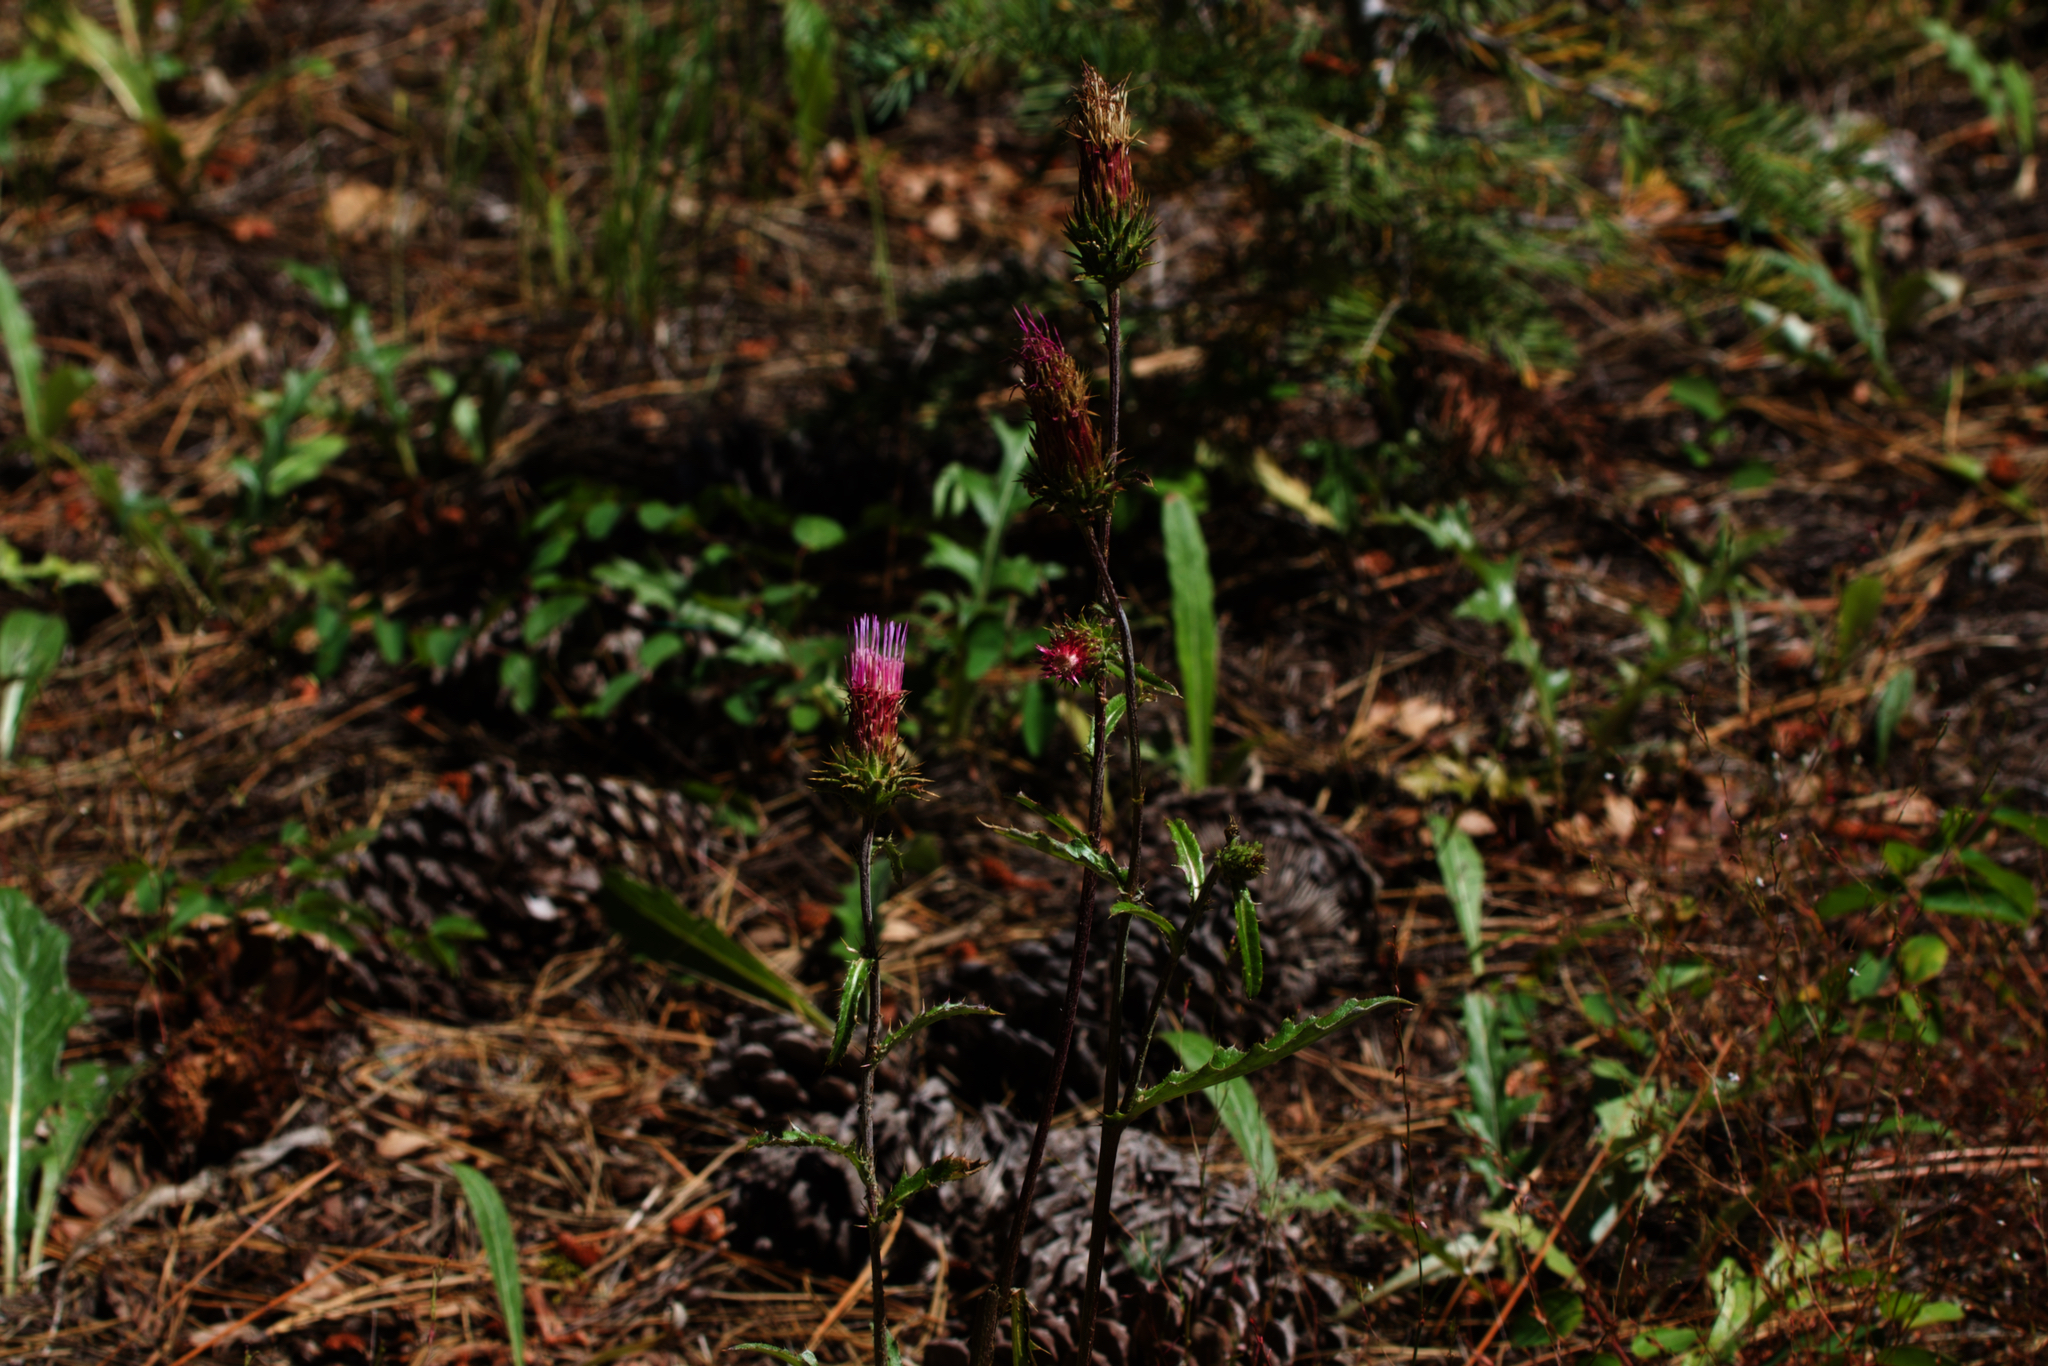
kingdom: Plantae
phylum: Tracheophyta
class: Magnoliopsida
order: Asterales
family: Asteraceae
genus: Cirsium
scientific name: Cirsium andersonii
